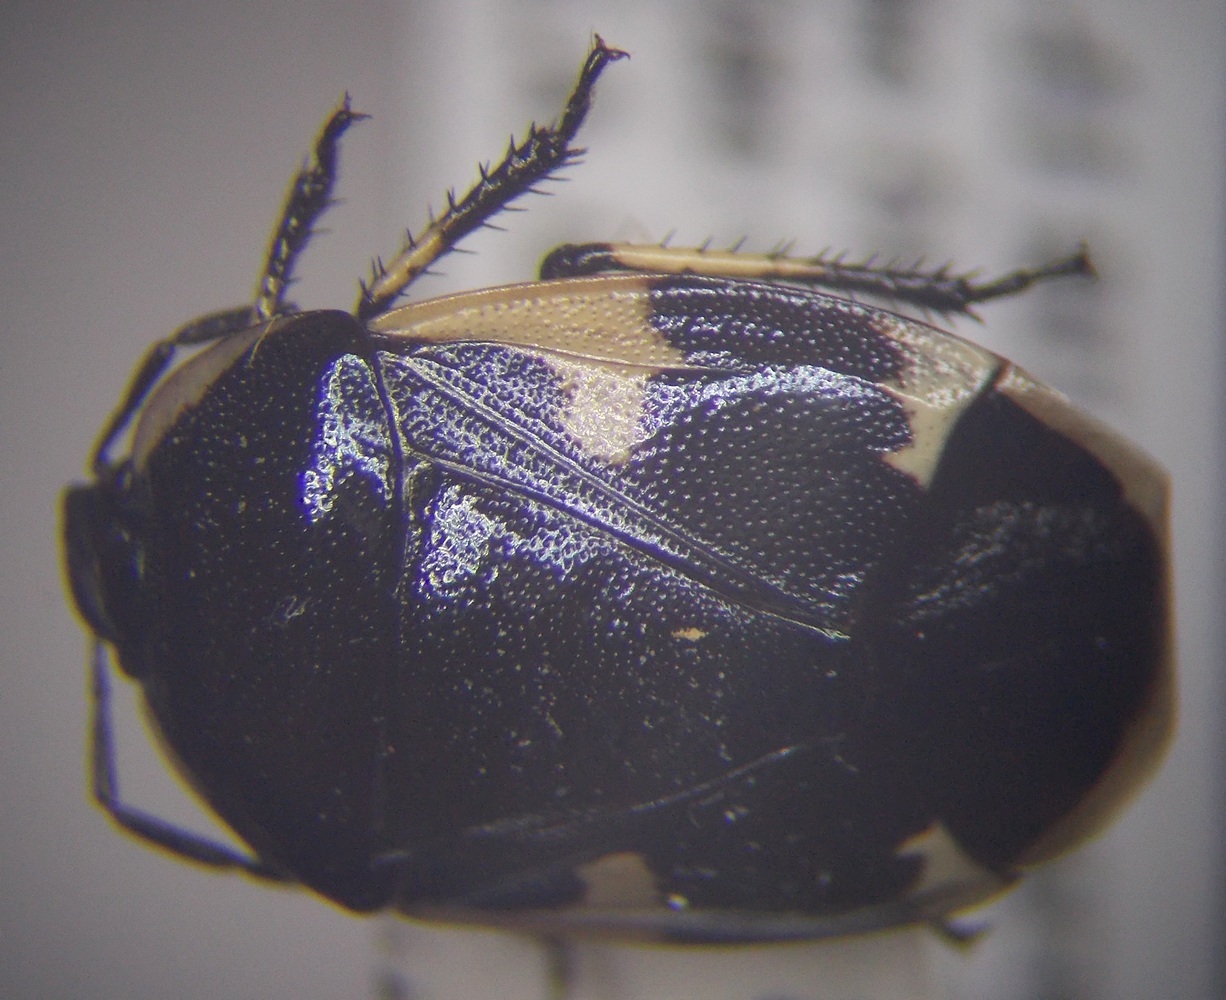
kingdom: Animalia
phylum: Arthropoda
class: Insecta
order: Hemiptera
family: Cydnidae
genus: Tritomegas
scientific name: Tritomegas sexmaculatus
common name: Rambur's pied shieldbug
